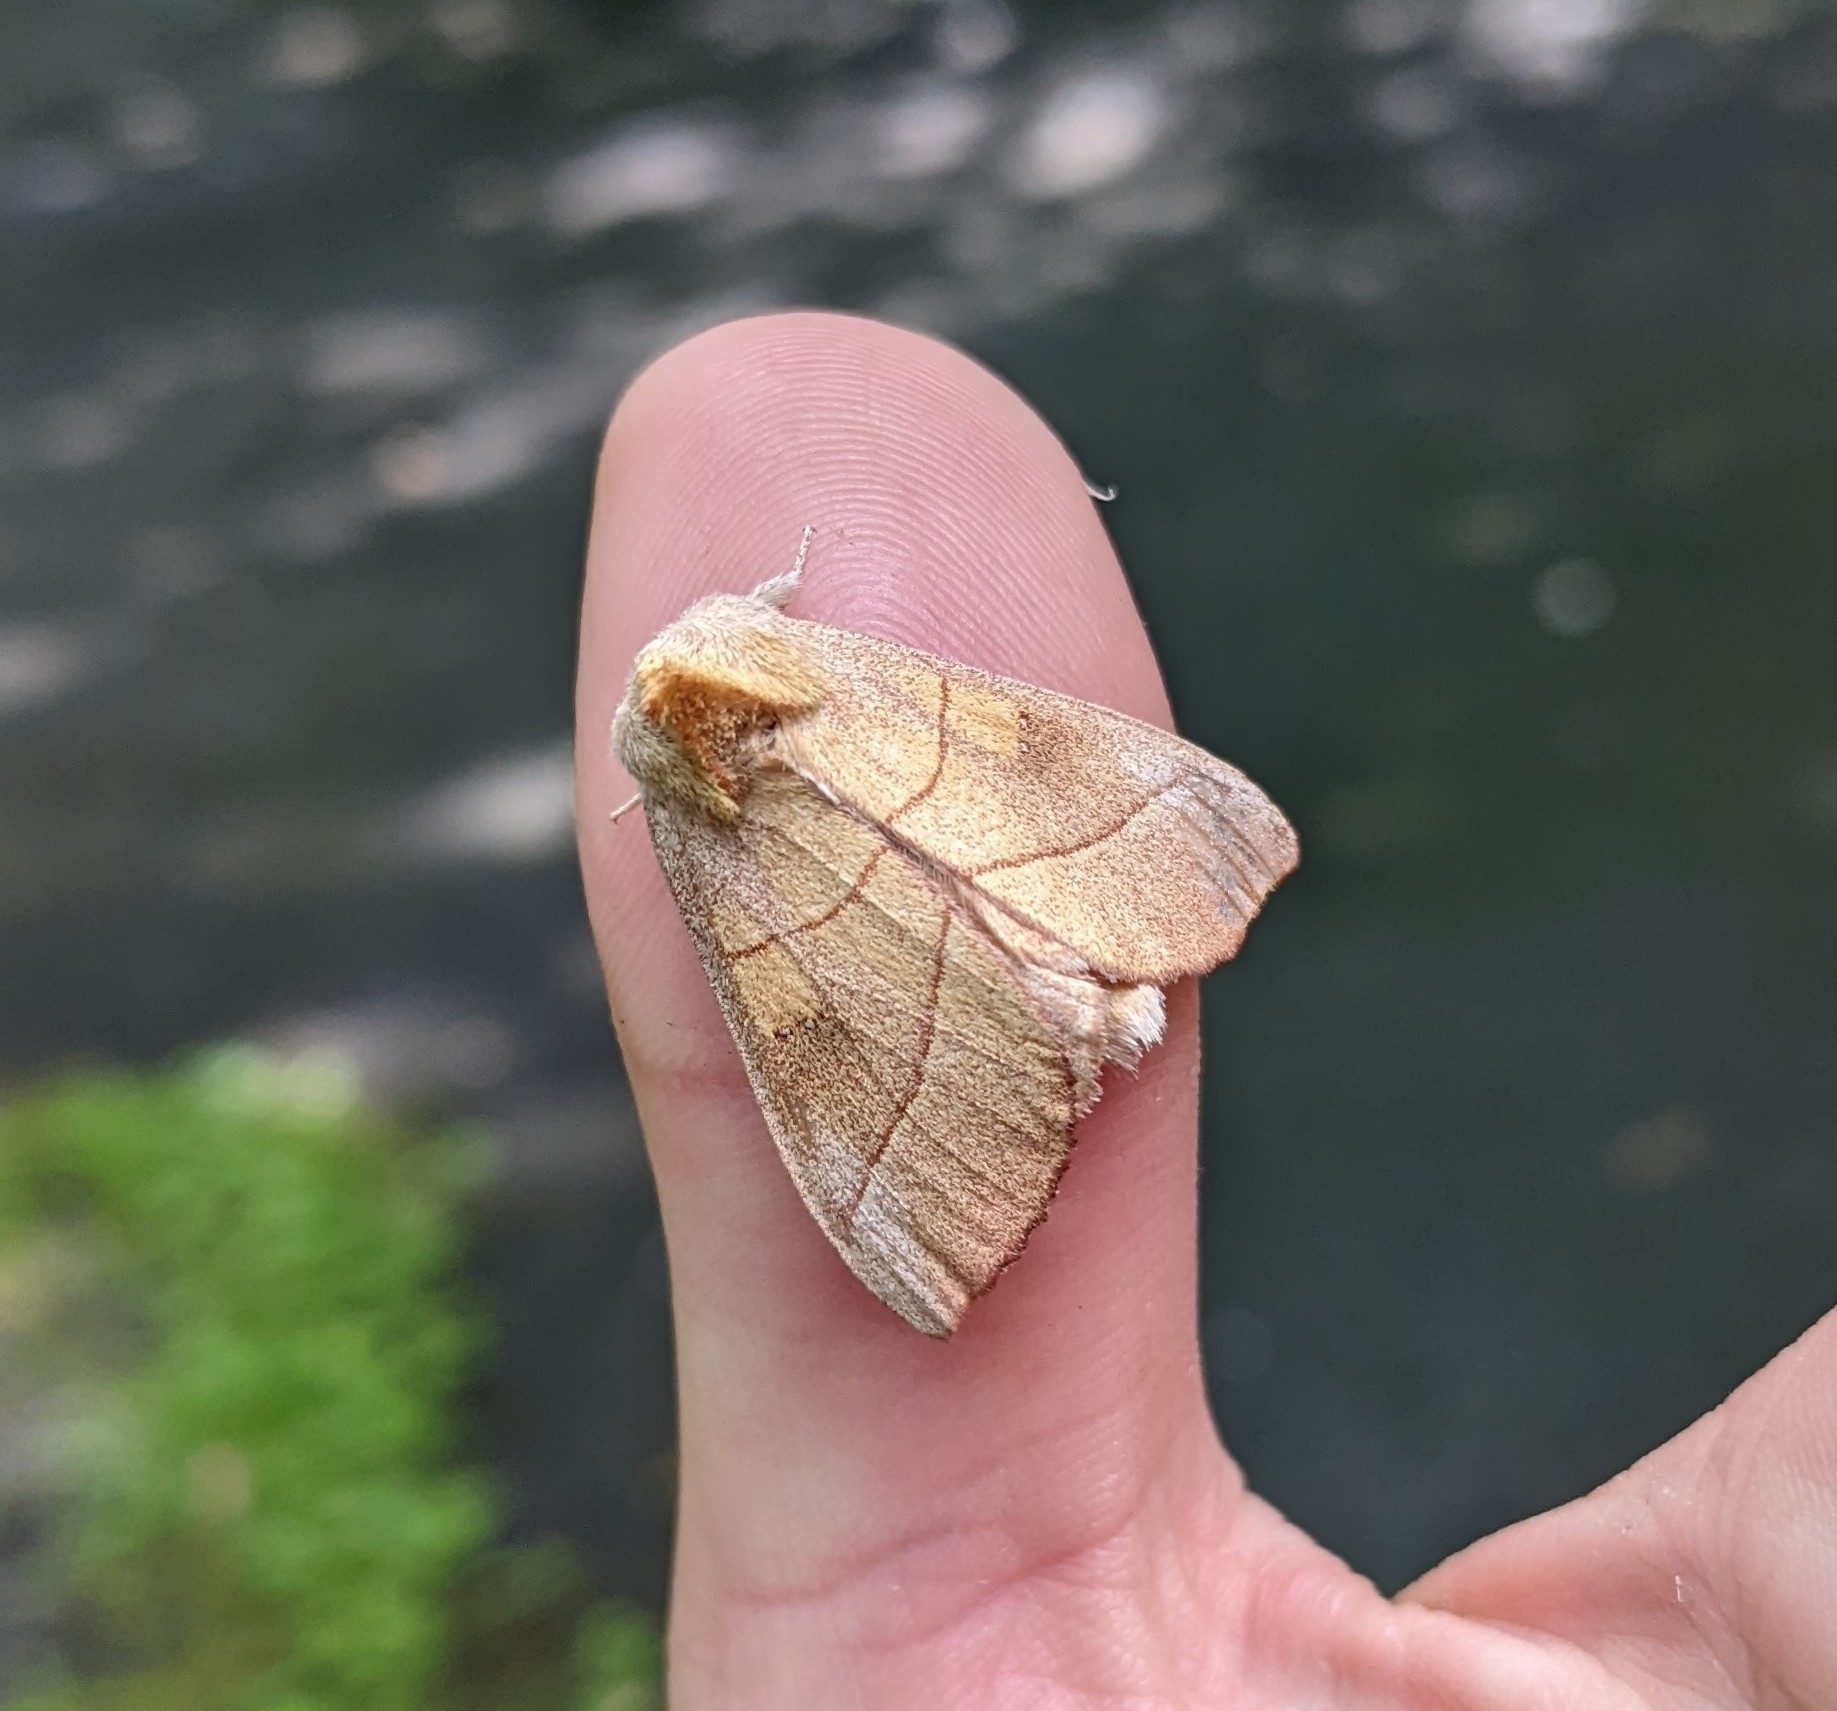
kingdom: Animalia
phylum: Arthropoda
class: Insecta
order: Lepidoptera
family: Notodontidae
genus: Nadata
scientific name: Nadata gibbosa
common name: White-dotted prominent
